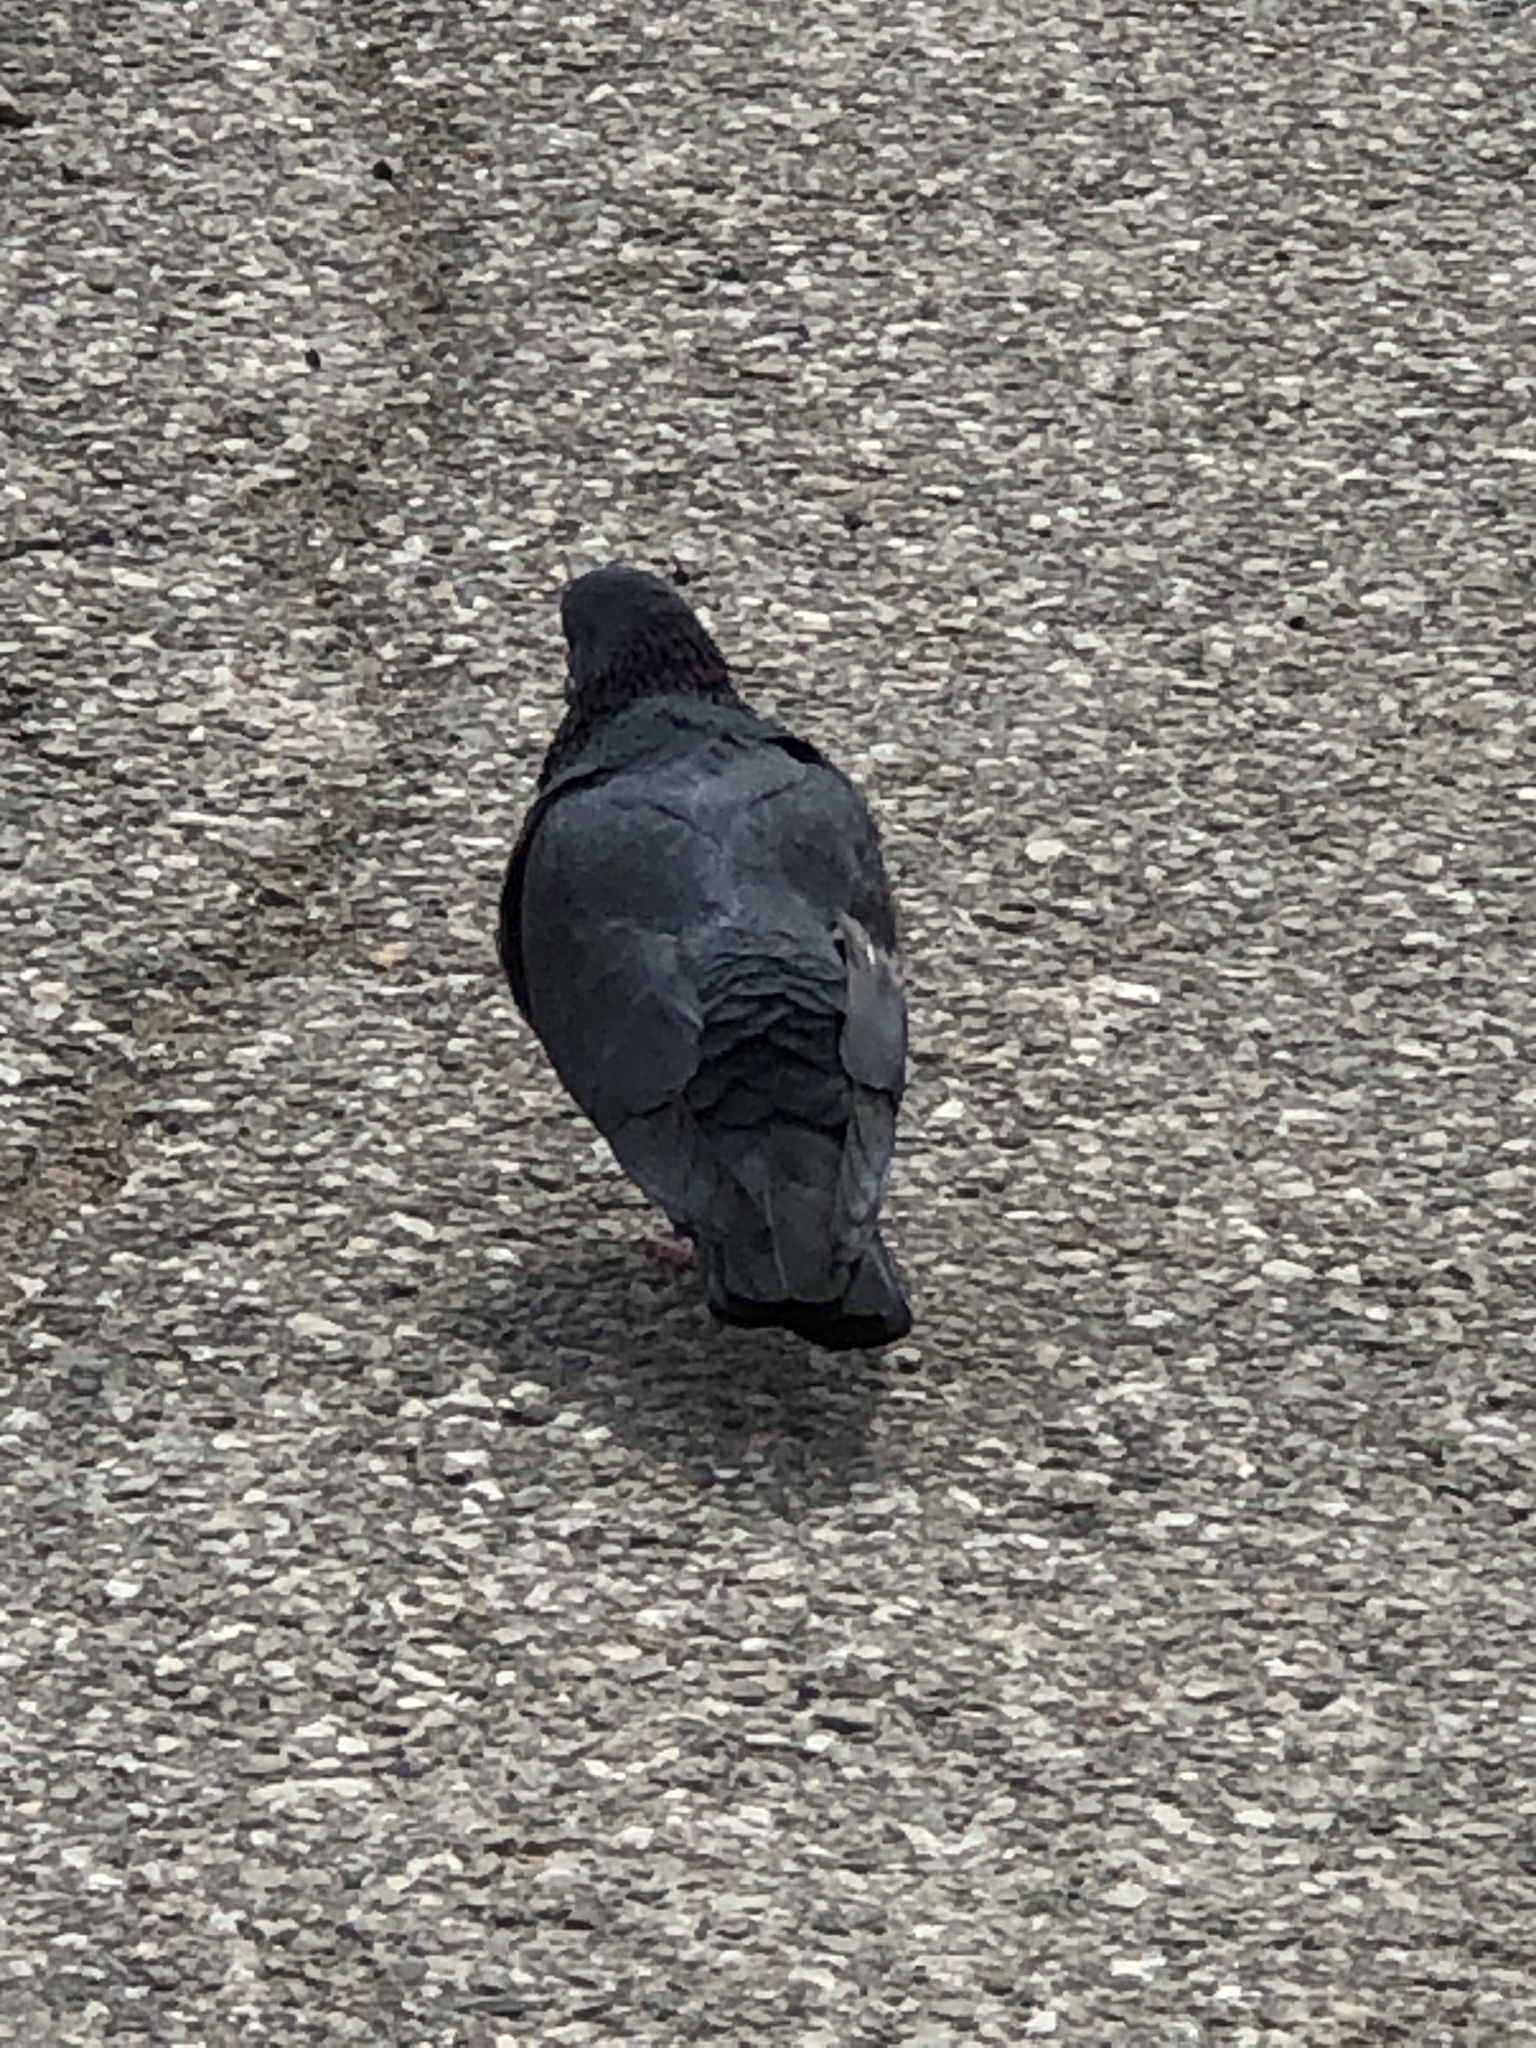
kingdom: Animalia
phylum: Chordata
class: Aves
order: Columbiformes
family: Columbidae
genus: Columba
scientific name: Columba livia
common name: Rock pigeon
